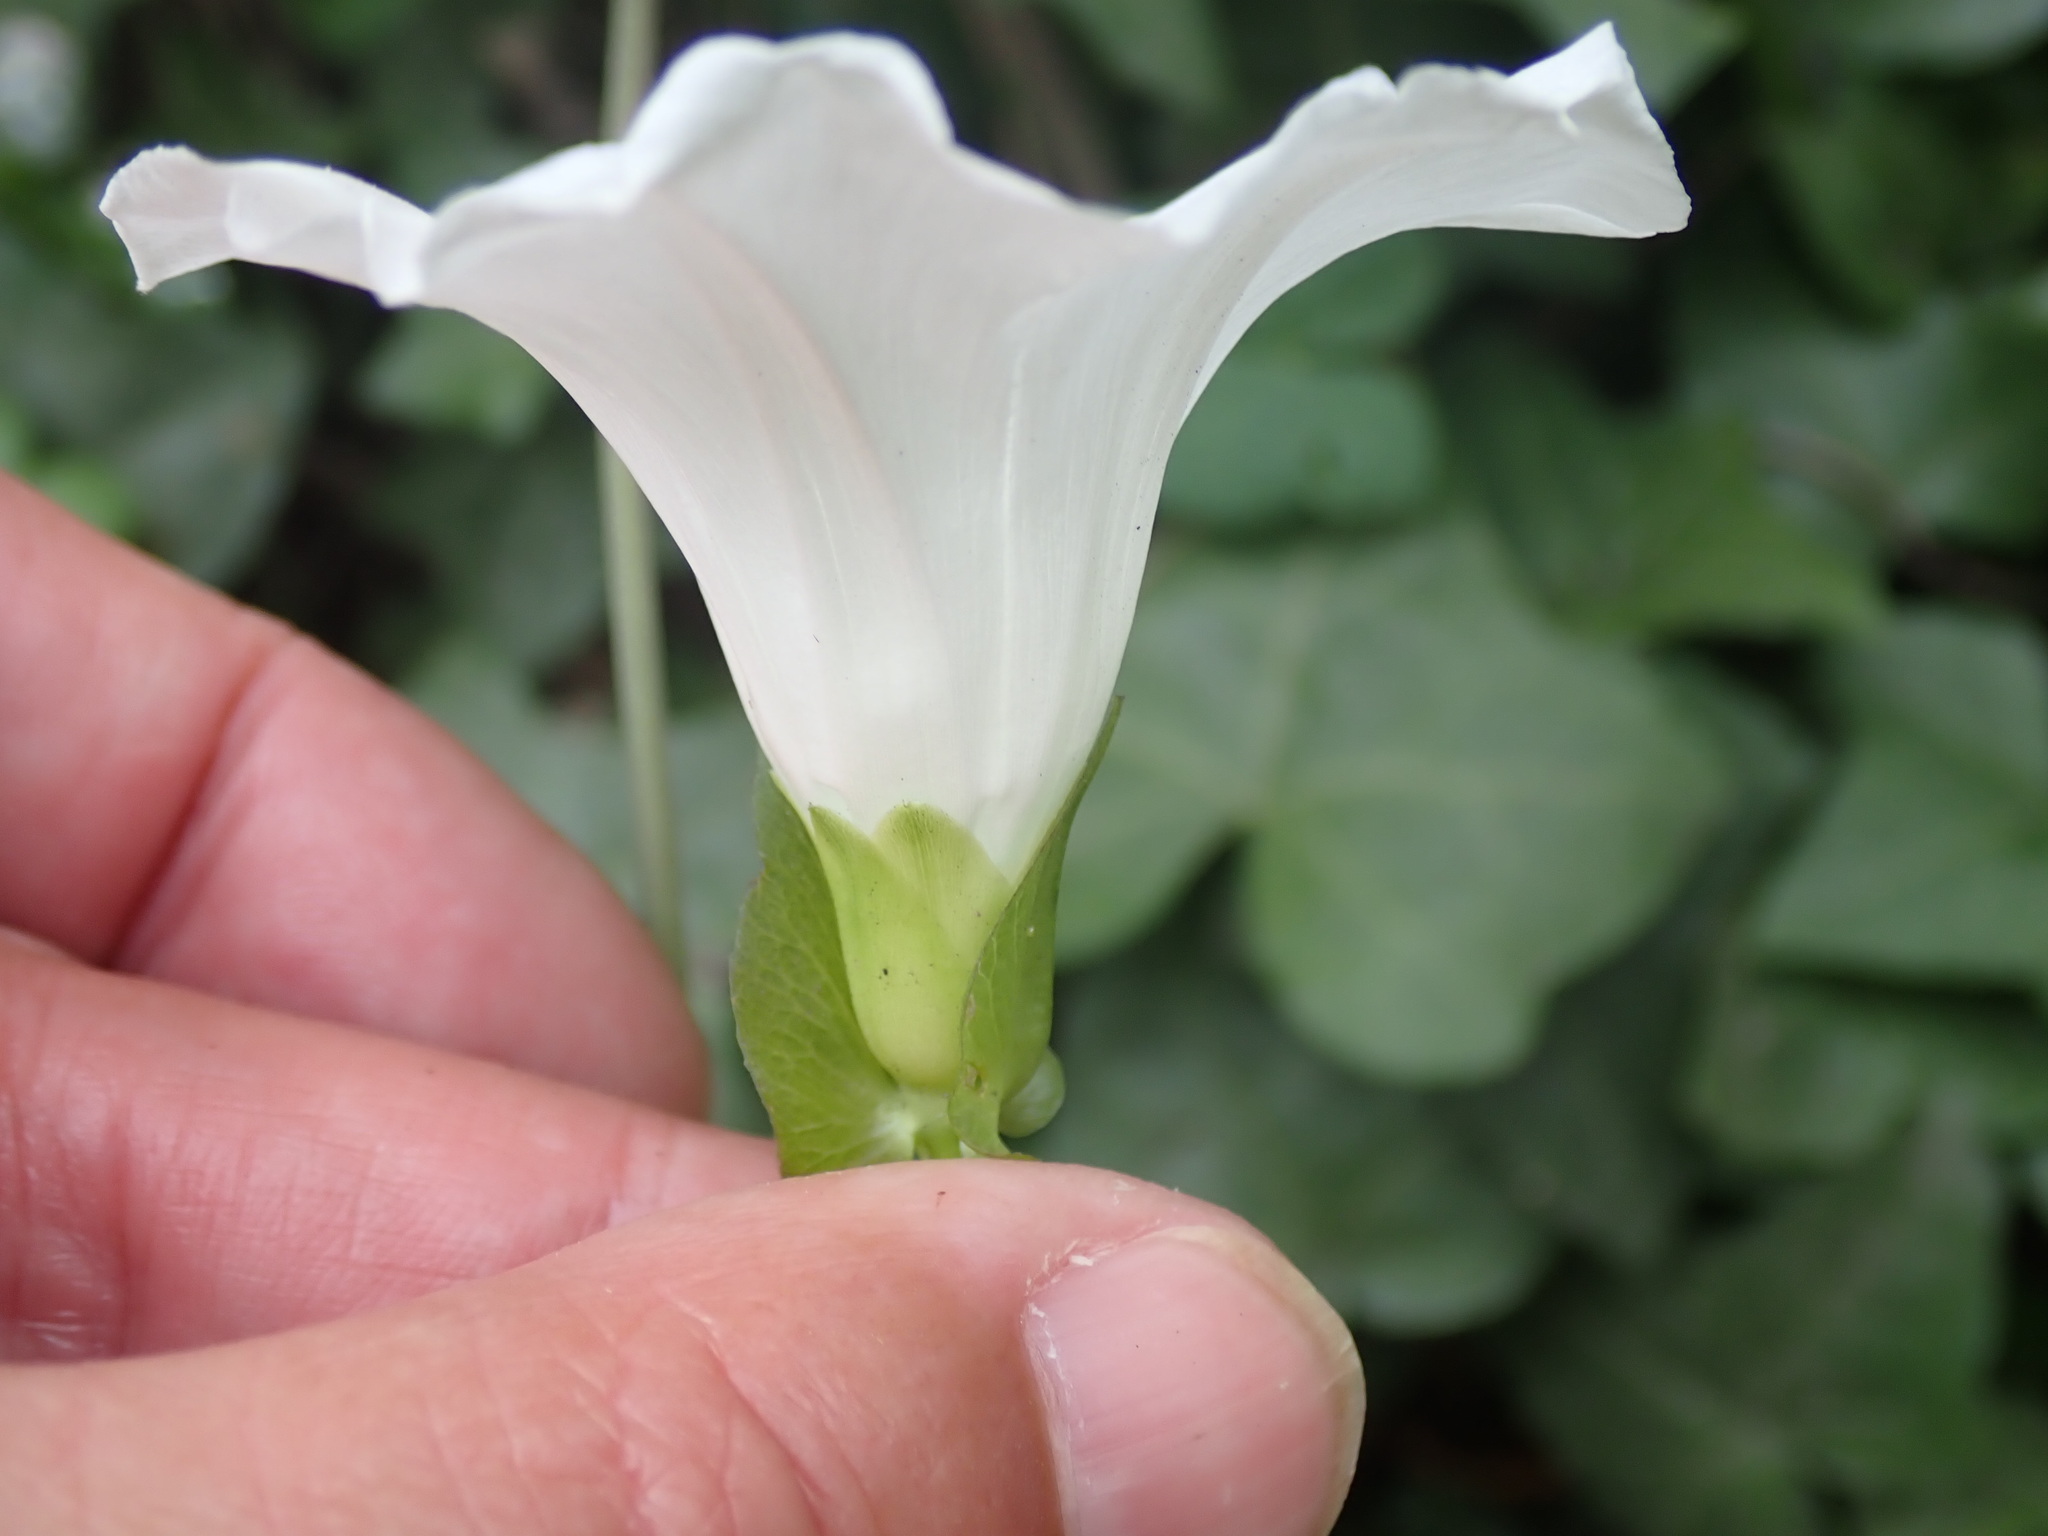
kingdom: Plantae
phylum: Tracheophyta
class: Magnoliopsida
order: Solanales
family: Convolvulaceae
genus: Calystegia
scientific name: Calystegia sepium
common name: Hedge bindweed
